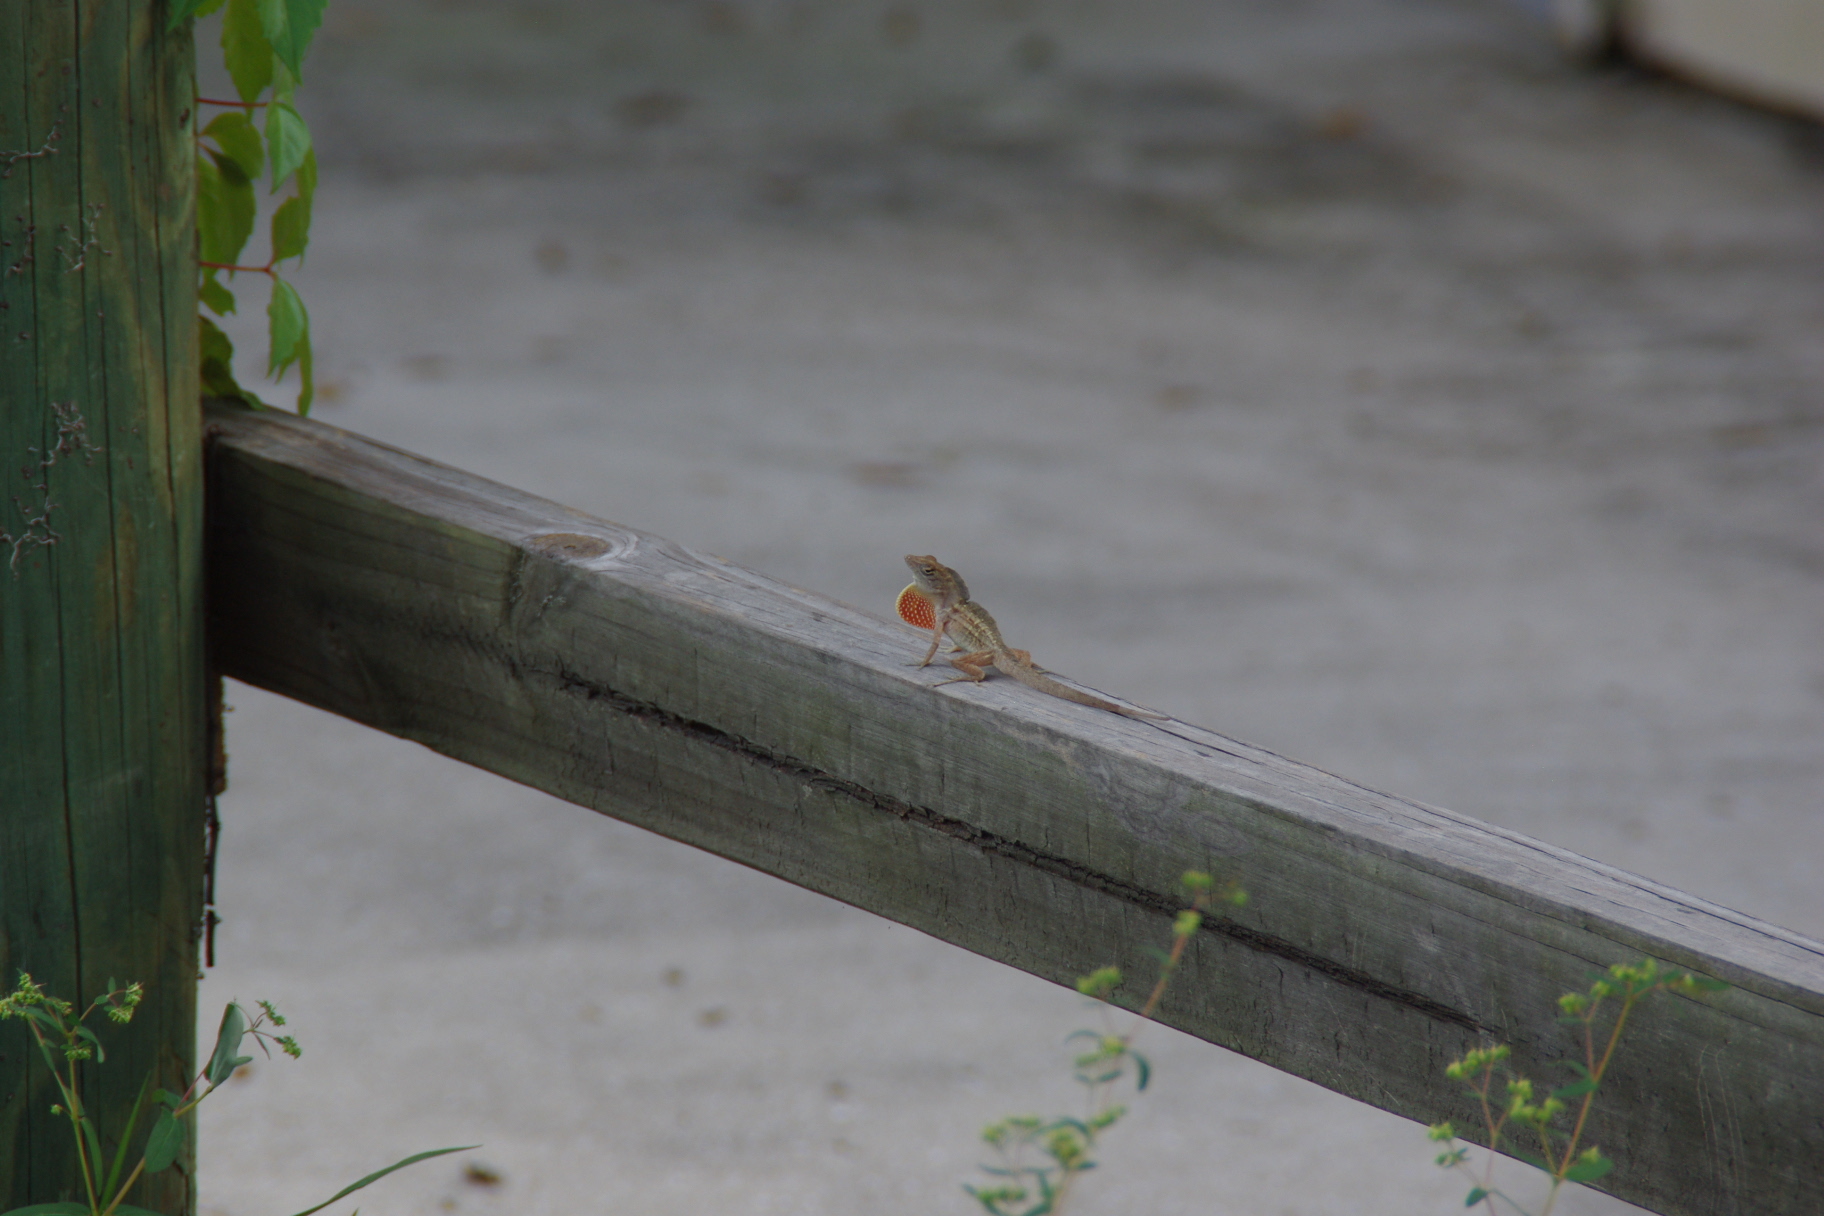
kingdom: Animalia
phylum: Chordata
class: Squamata
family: Dactyloidae
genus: Anolis
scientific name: Anolis sagrei
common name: Brown anole
